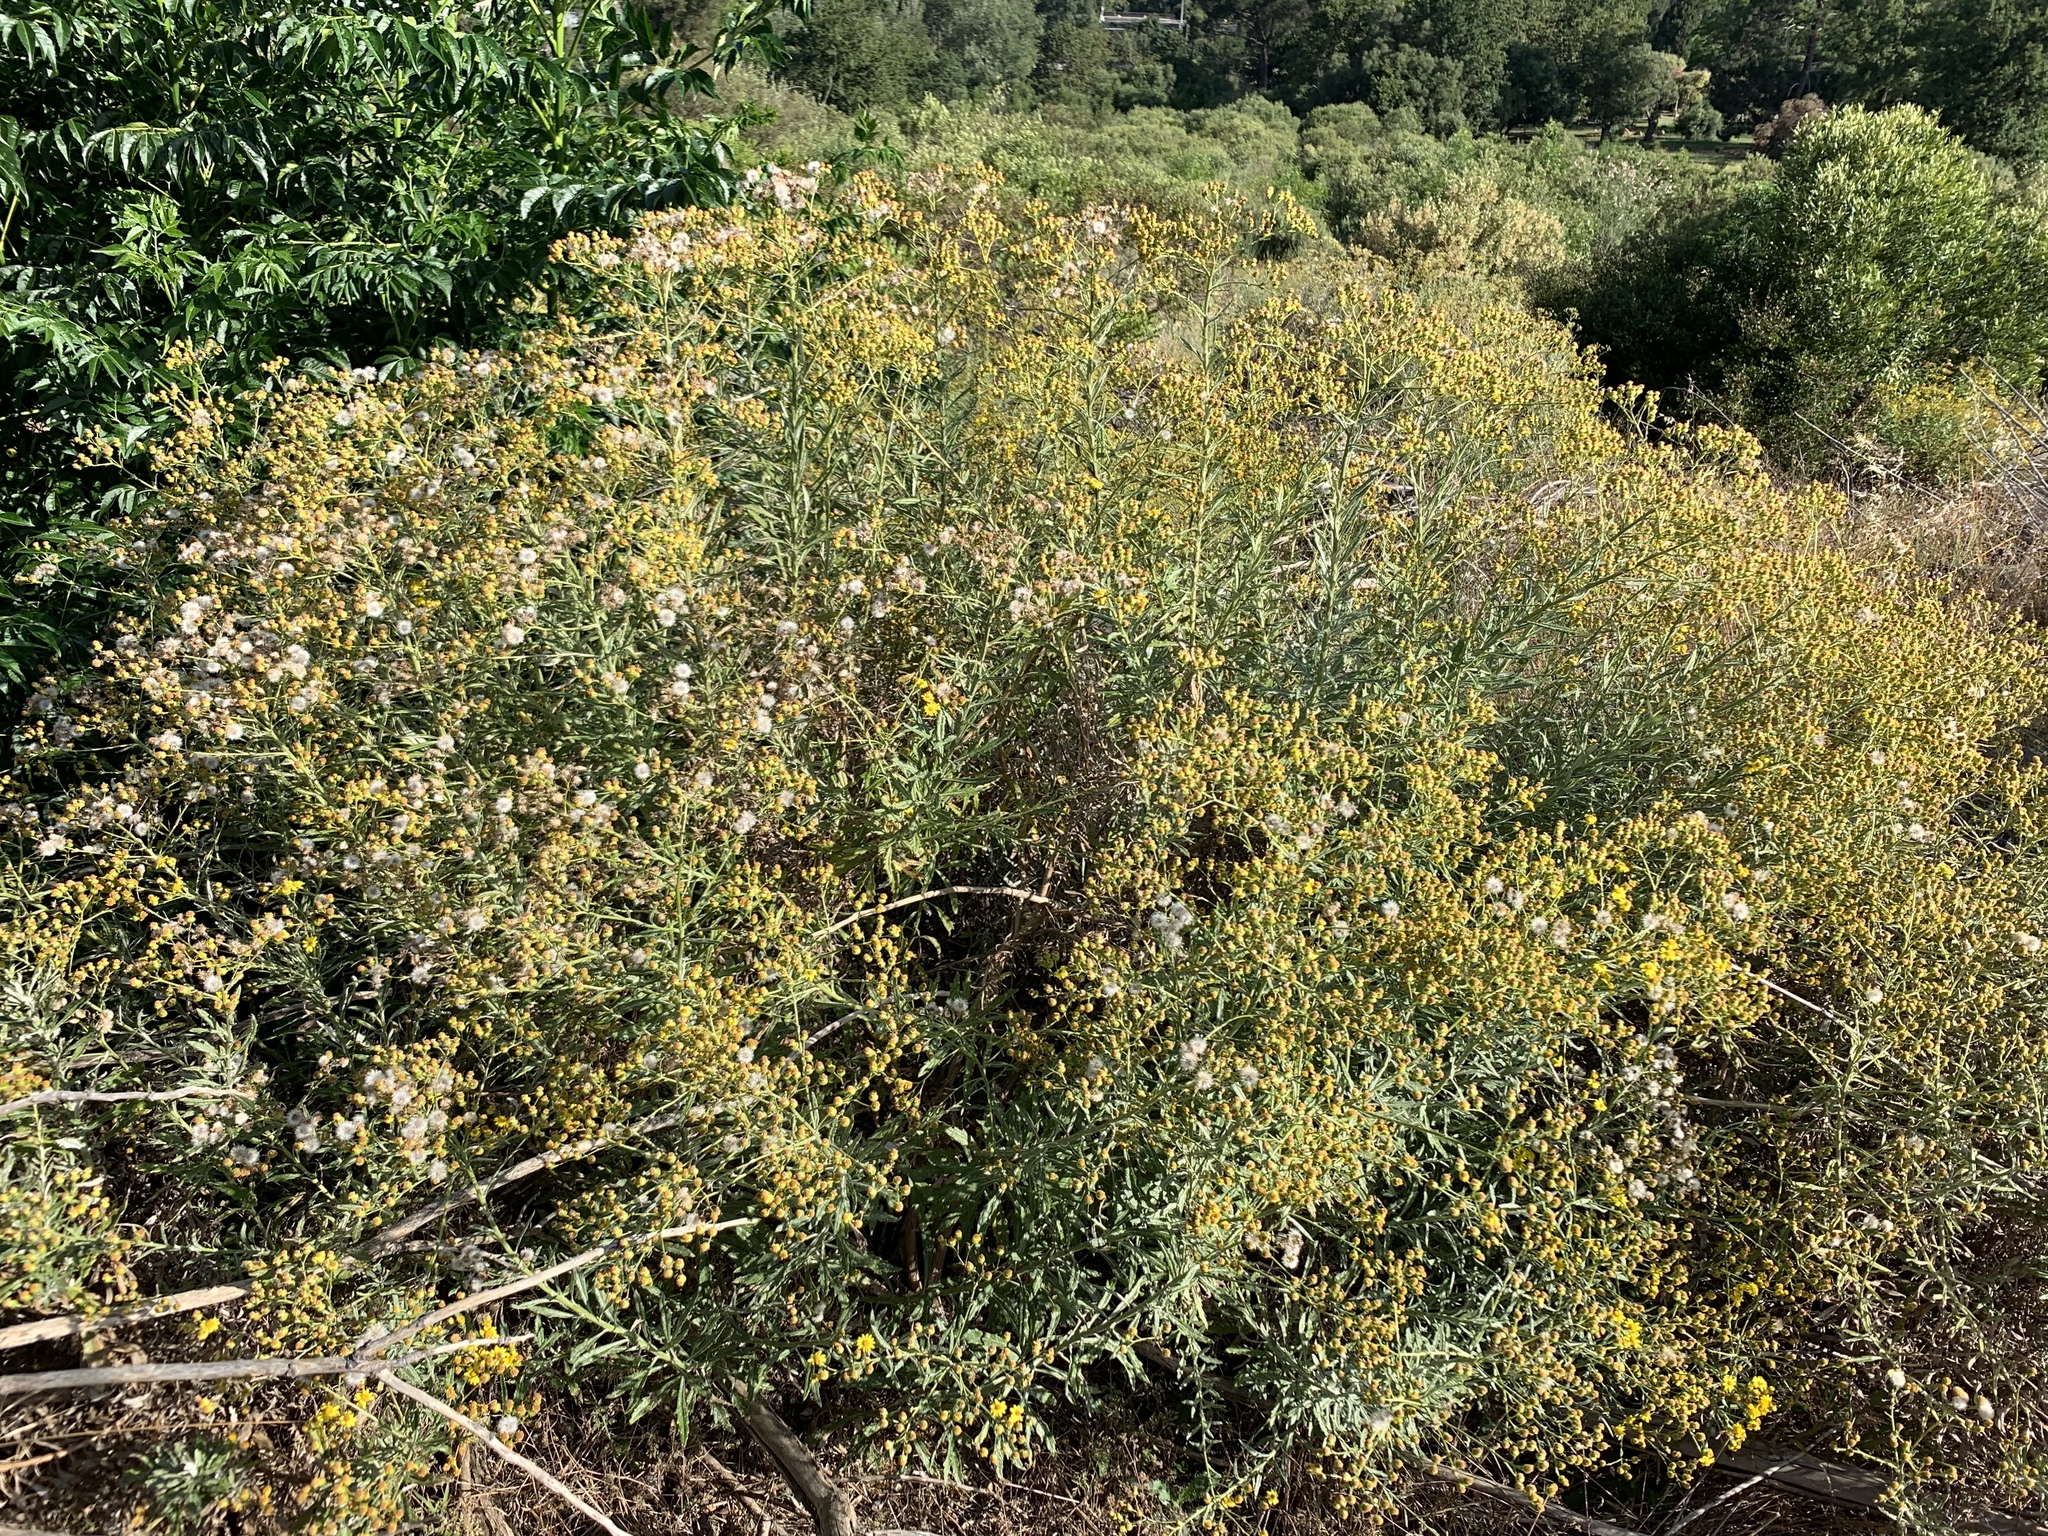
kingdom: Plantae
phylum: Tracheophyta
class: Magnoliopsida
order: Asterales
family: Asteraceae
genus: Senecio
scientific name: Senecio pterophorus
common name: Shoddy ragwort
